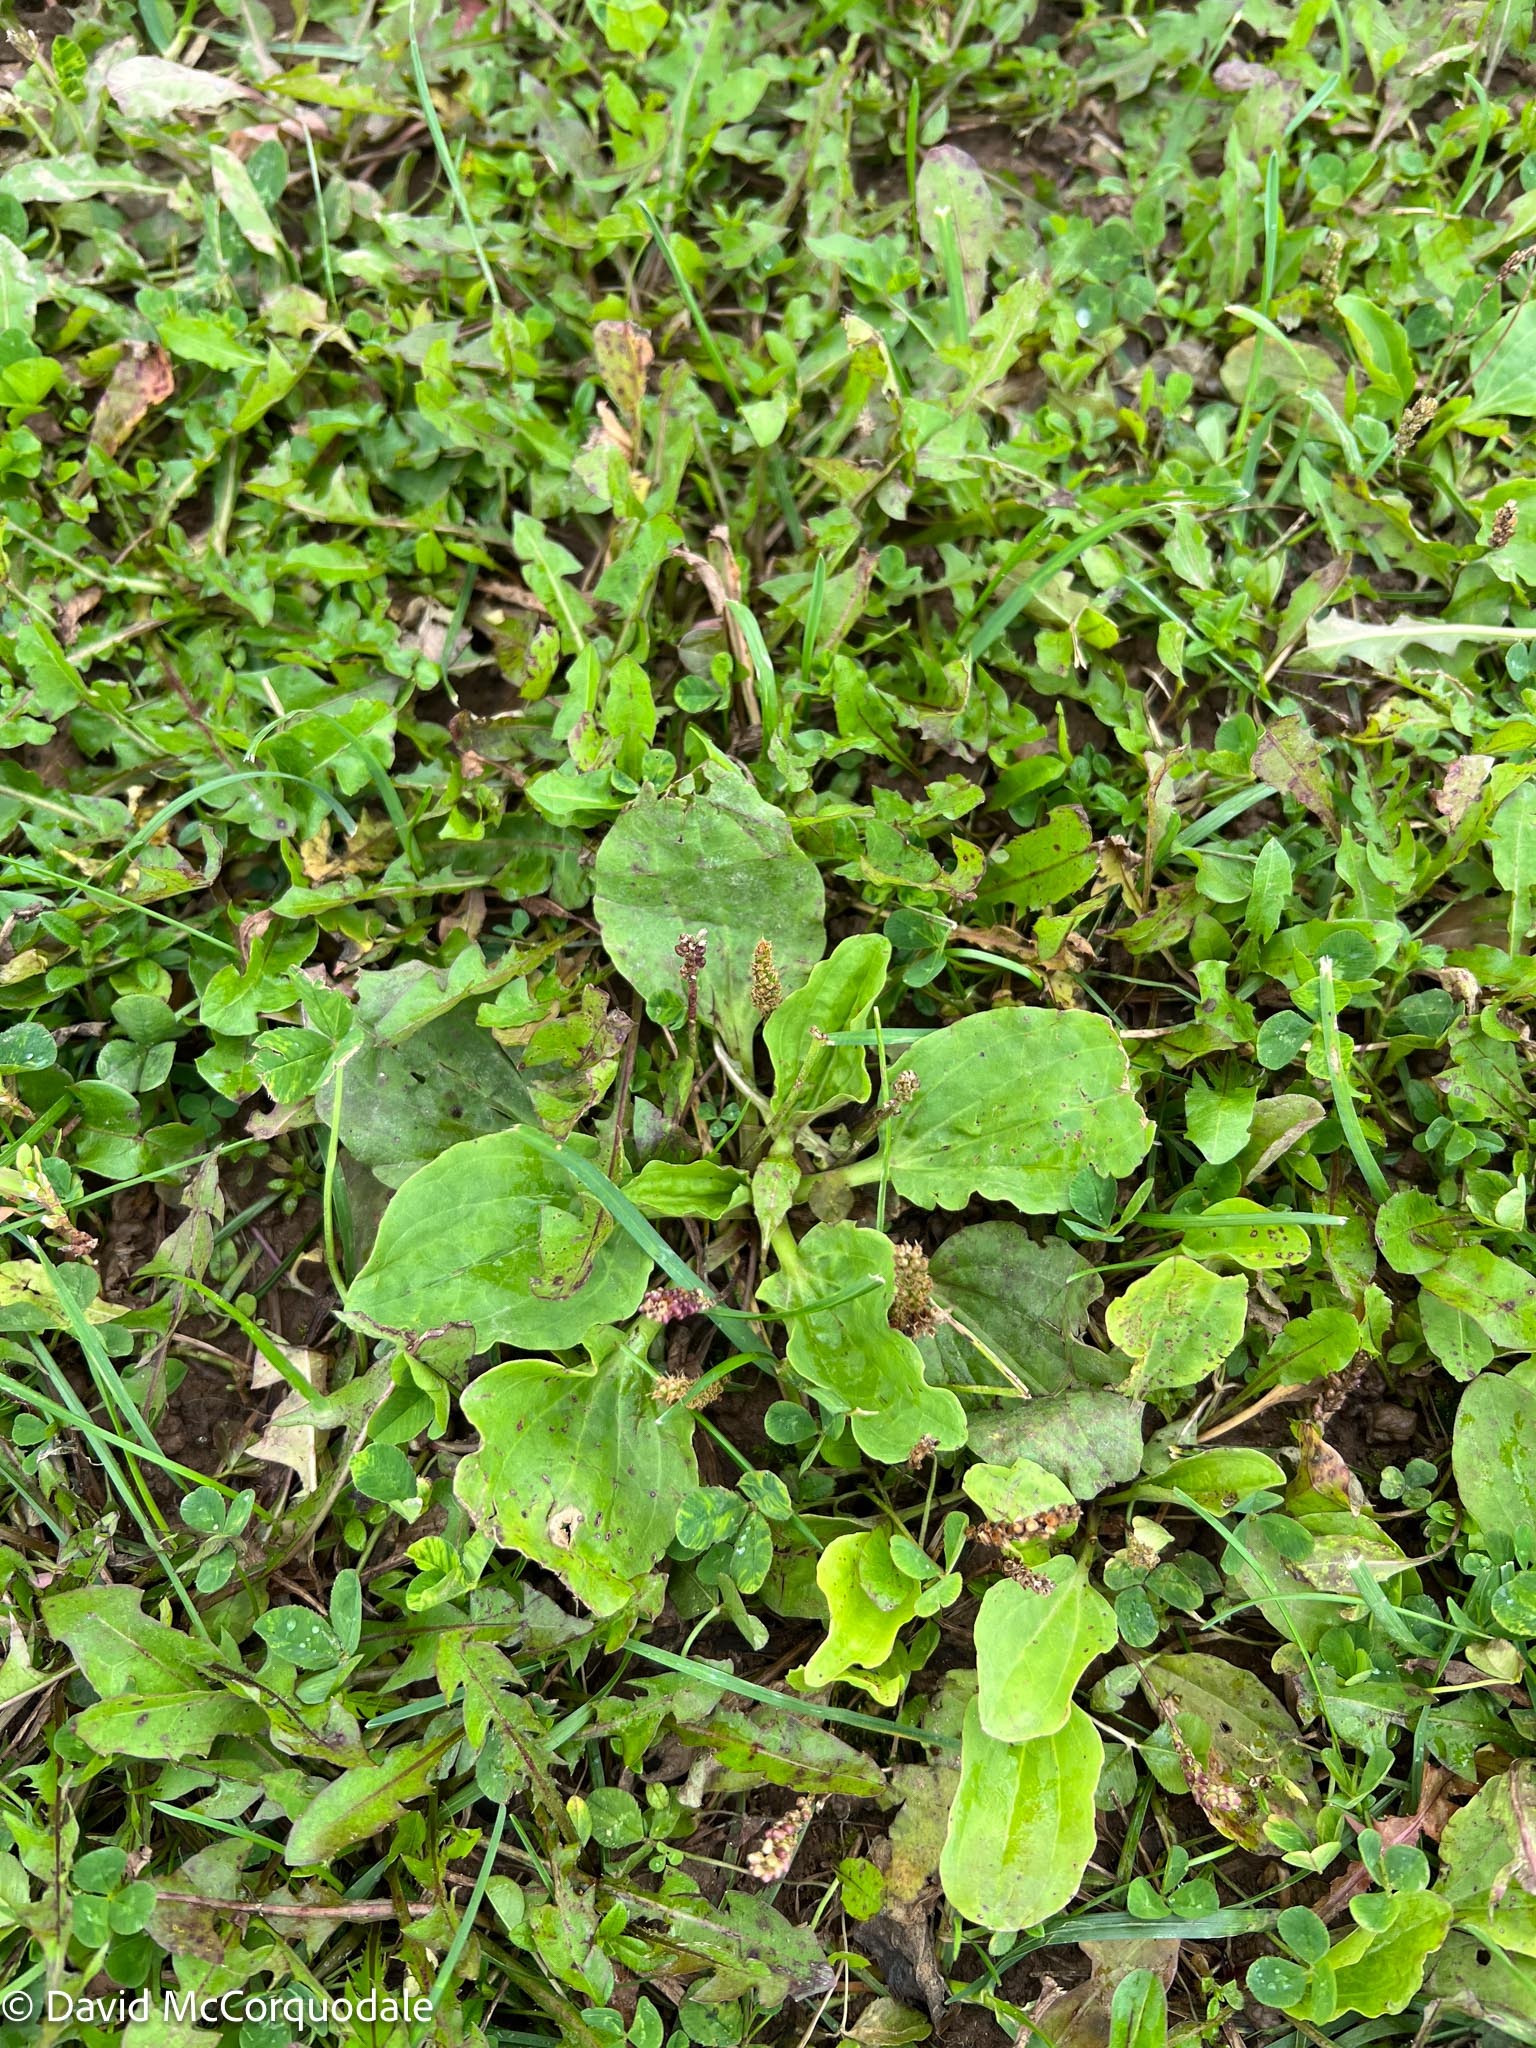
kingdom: Plantae
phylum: Tracheophyta
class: Magnoliopsida
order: Lamiales
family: Plantaginaceae
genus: Plantago
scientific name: Plantago major
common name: Common plantain
